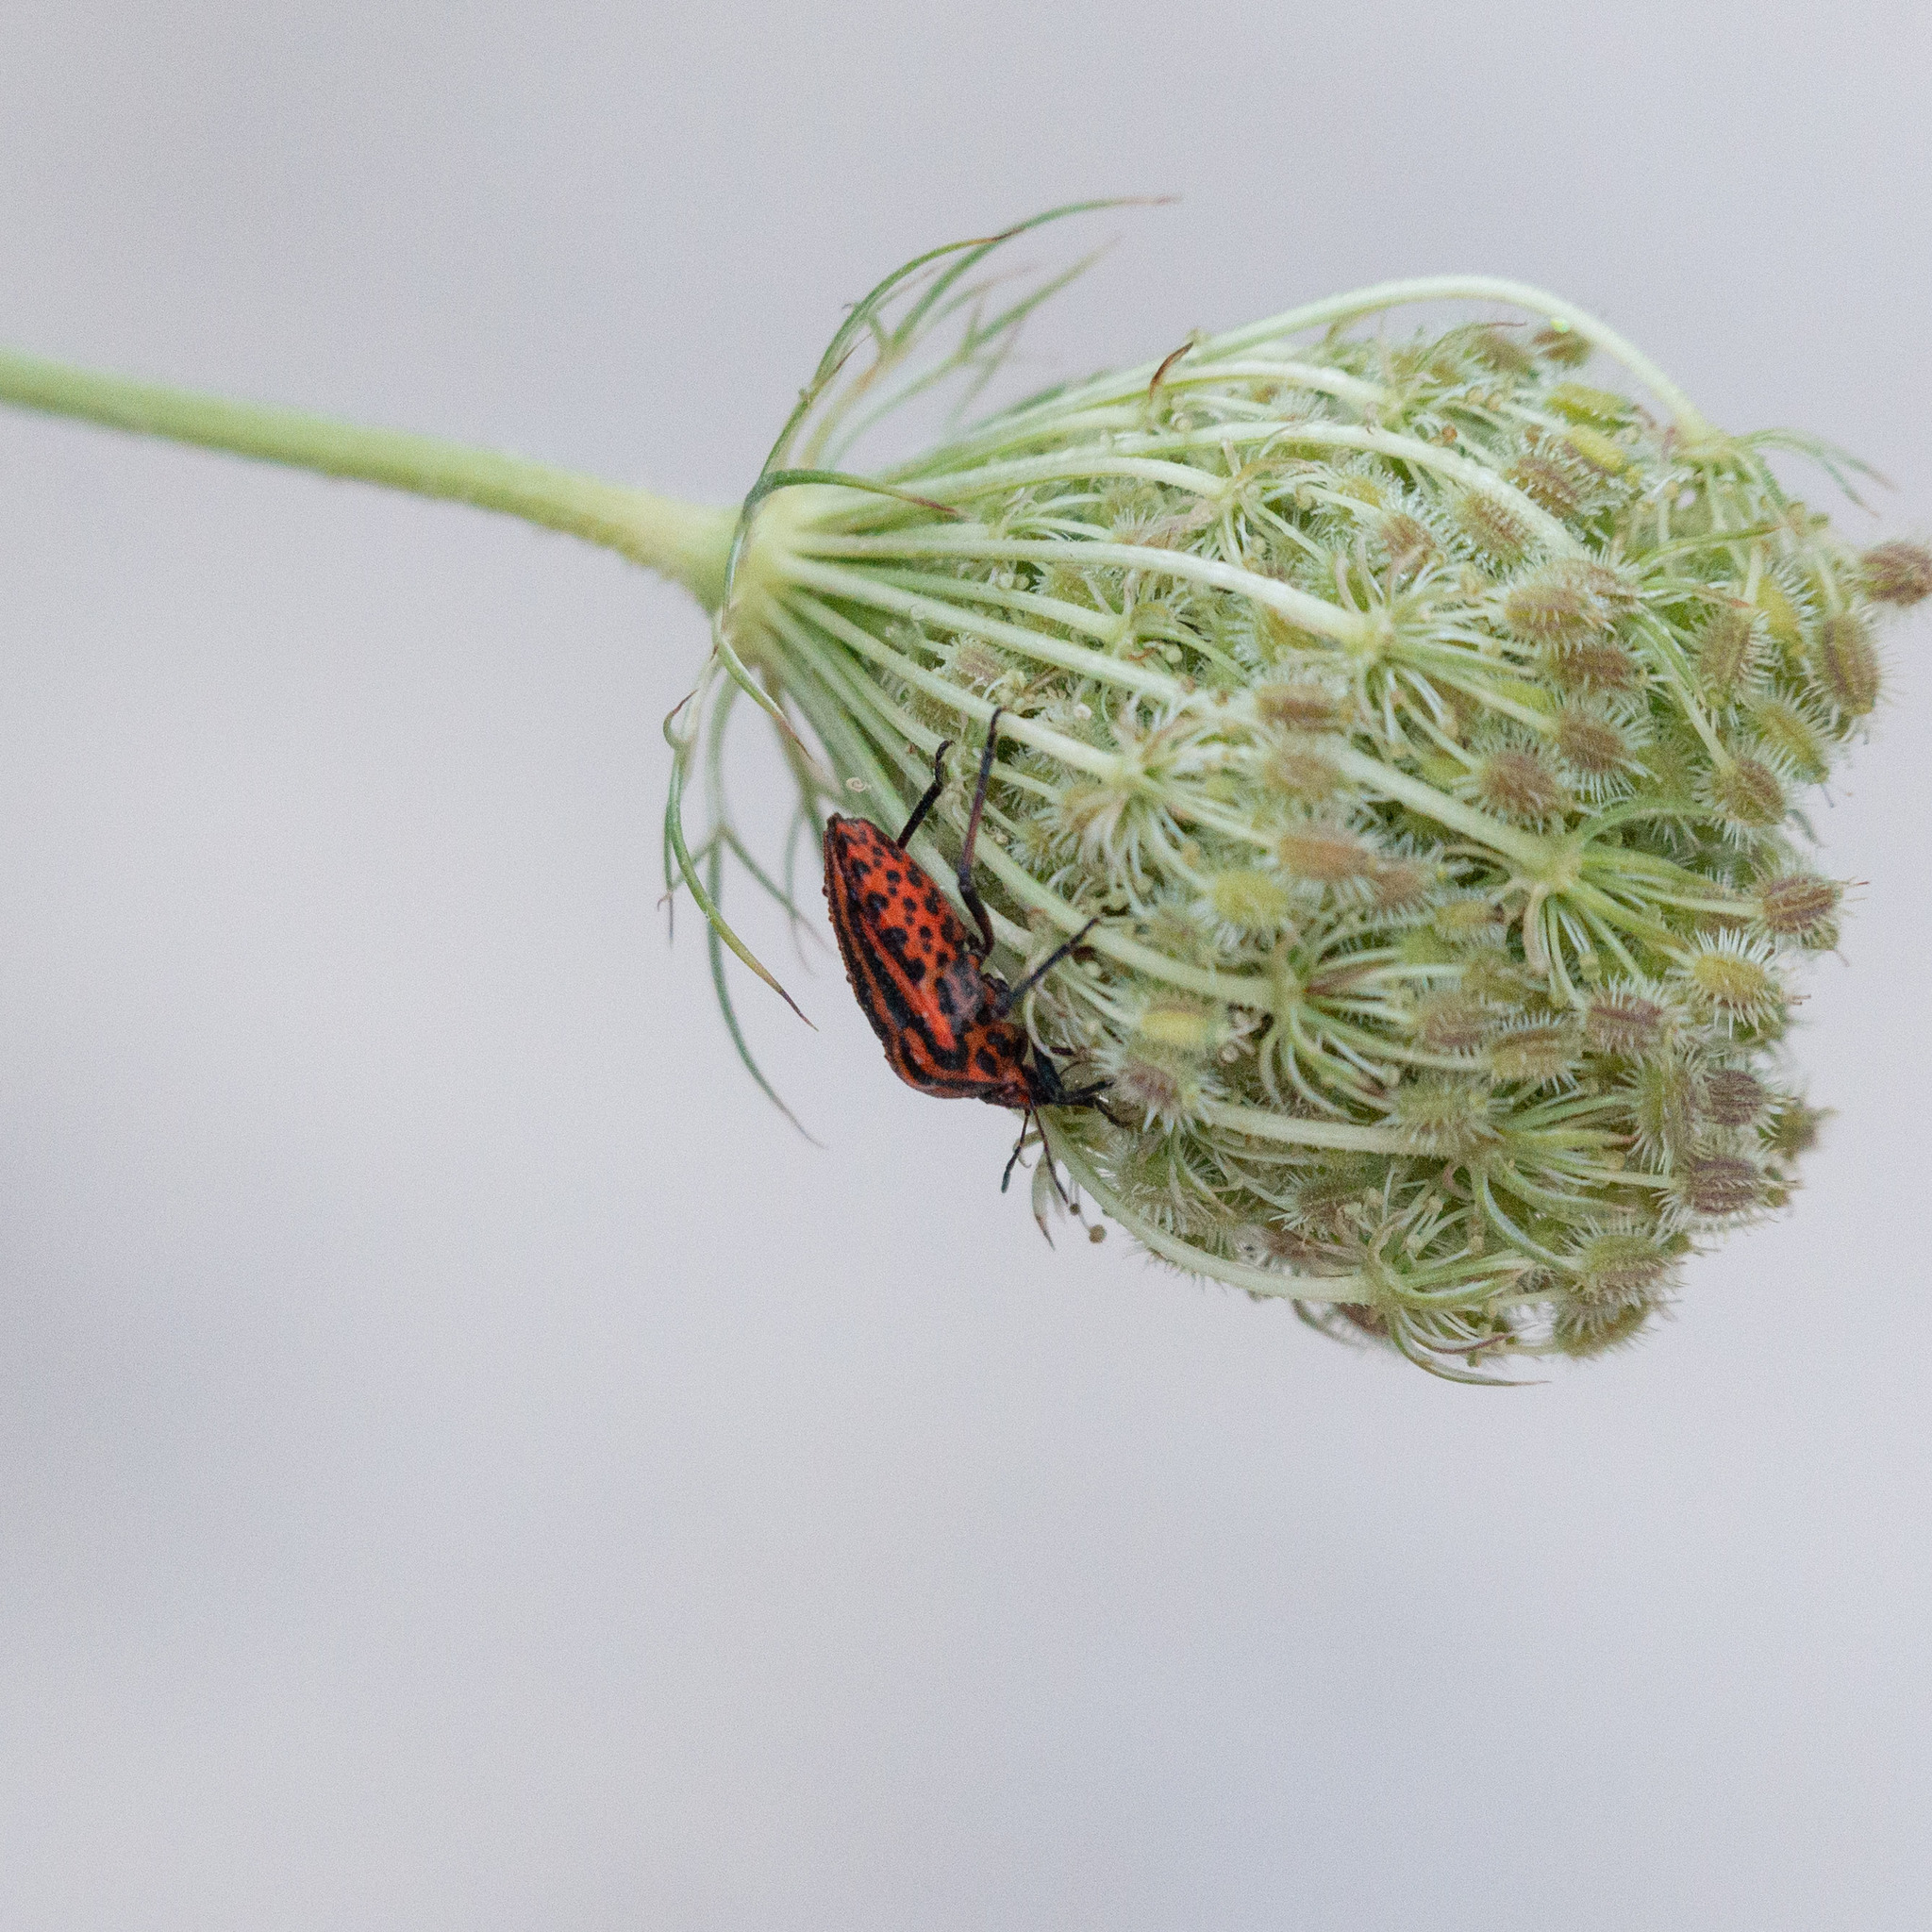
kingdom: Animalia
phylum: Arthropoda
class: Insecta
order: Hemiptera
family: Pentatomidae
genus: Graphosoma
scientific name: Graphosoma italicum
